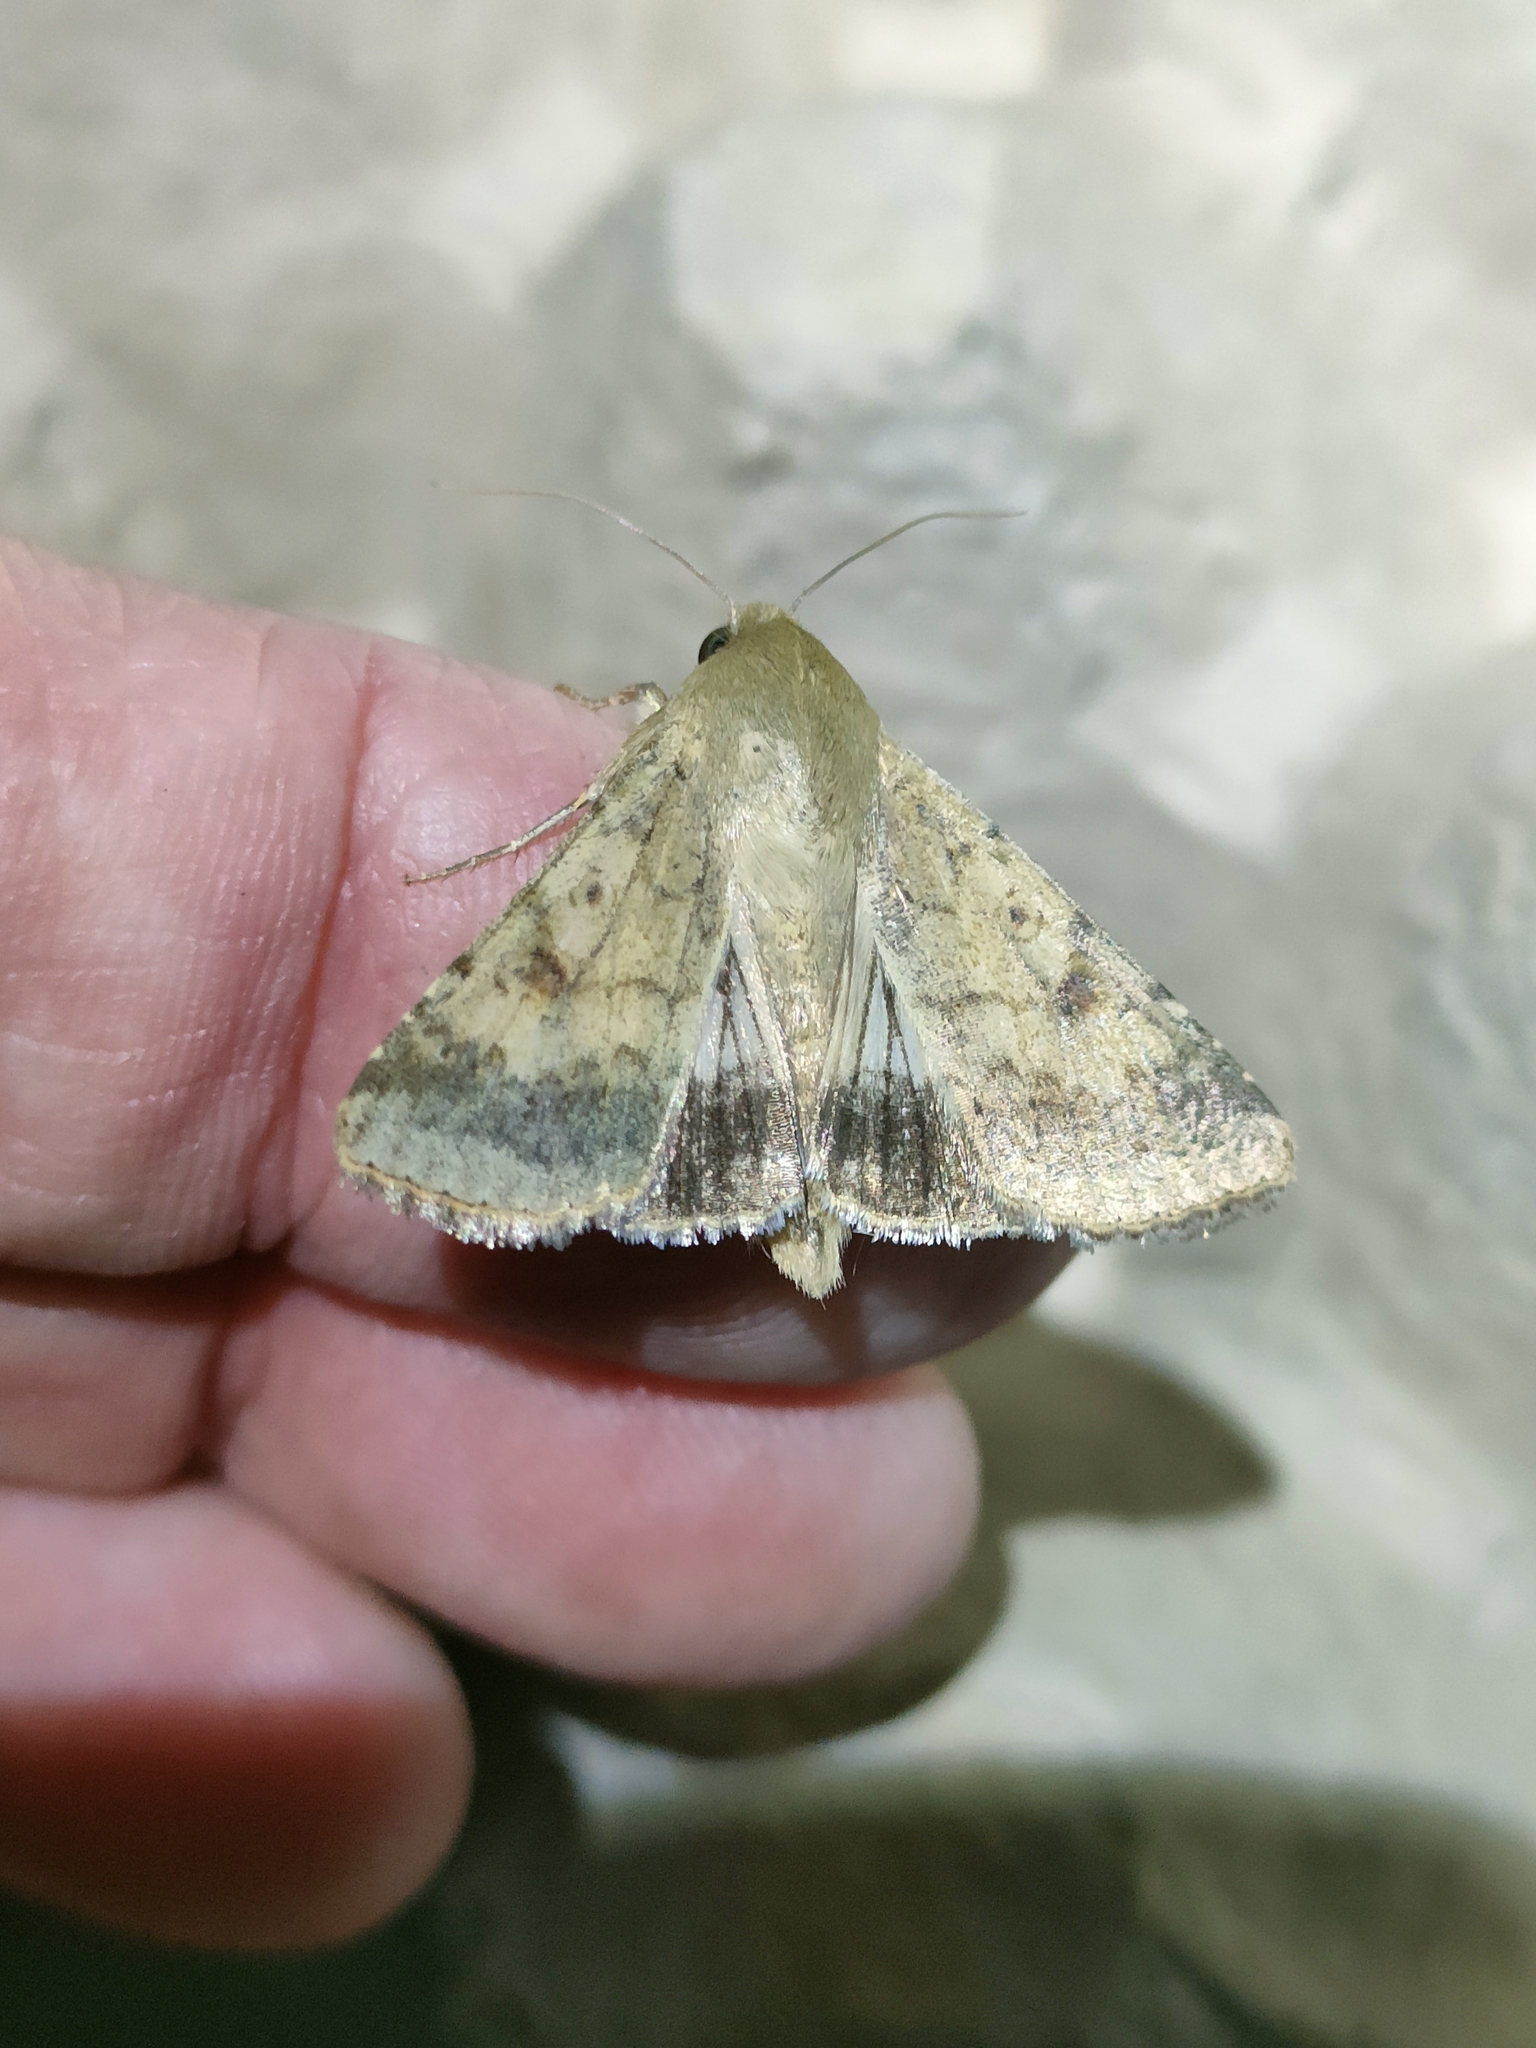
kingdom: Animalia
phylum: Arthropoda
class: Insecta
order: Lepidoptera
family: Noctuidae
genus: Helicoverpa
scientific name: Helicoverpa armigera
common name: Cotton bollworm
